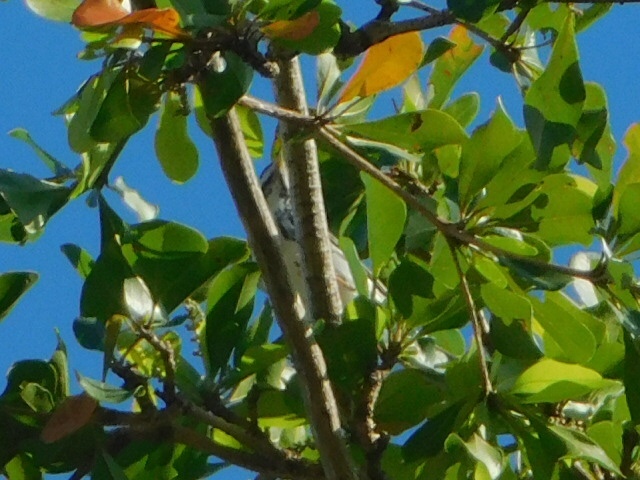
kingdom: Animalia
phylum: Chordata
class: Aves
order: Passeriformes
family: Parulidae
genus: Setophaga
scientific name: Setophaga striata
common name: Blackpoll warbler
